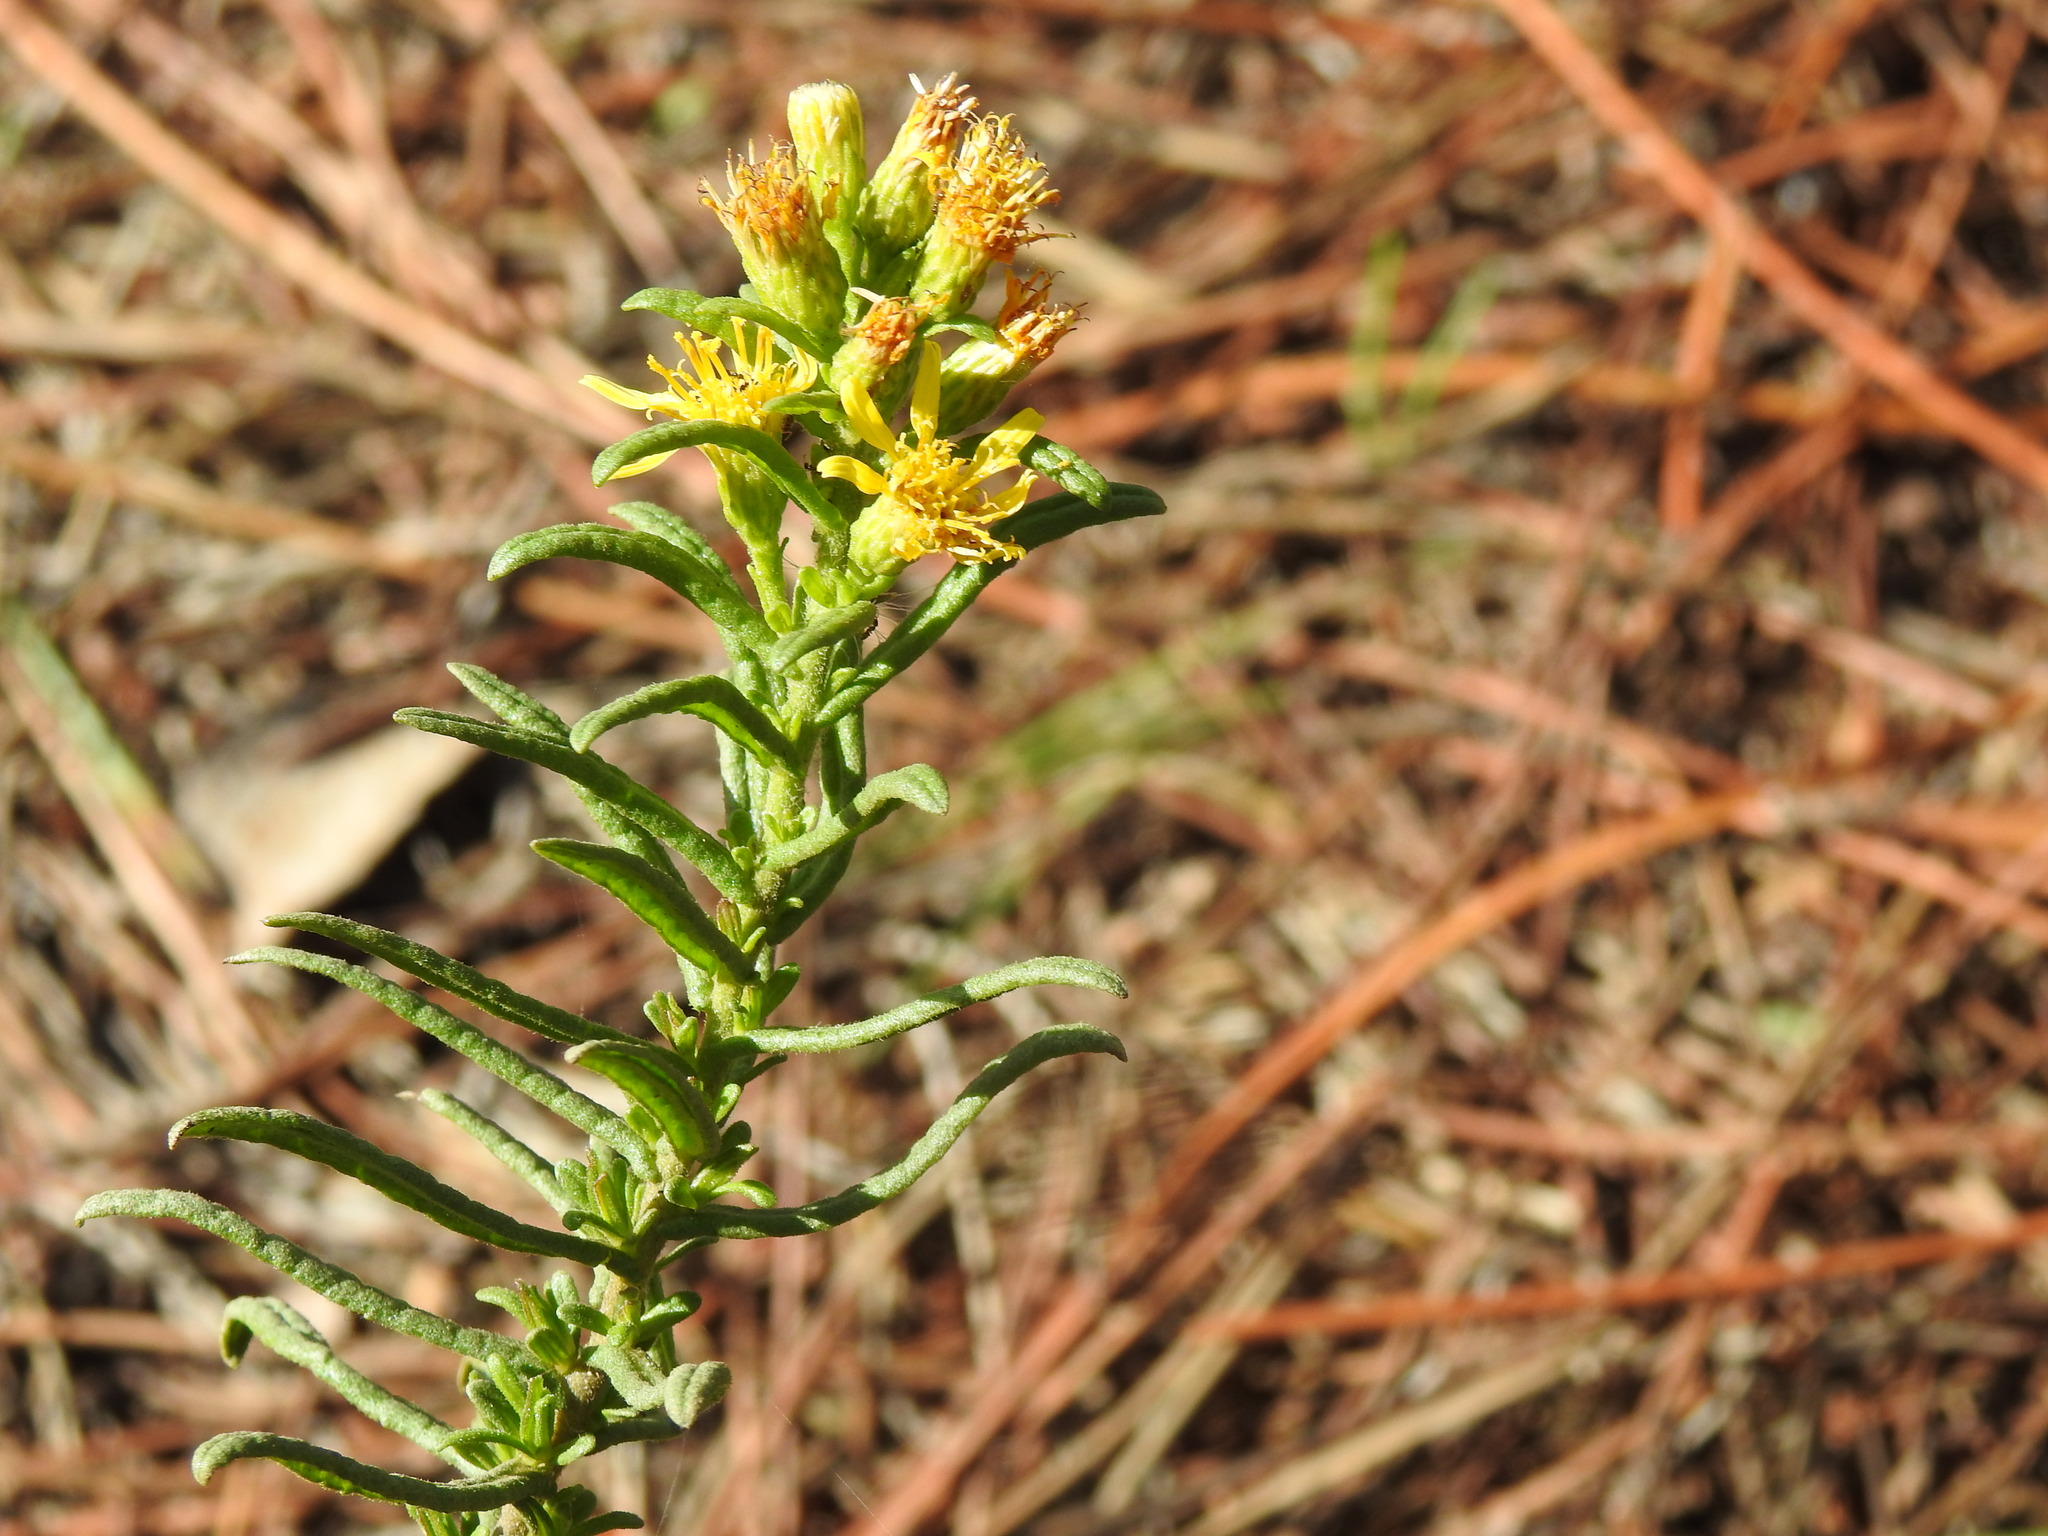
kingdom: Plantae
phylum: Tracheophyta
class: Magnoliopsida
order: Asterales
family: Asteraceae
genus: Dittrichia
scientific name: Dittrichia viscosa
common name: Woody fleabane
